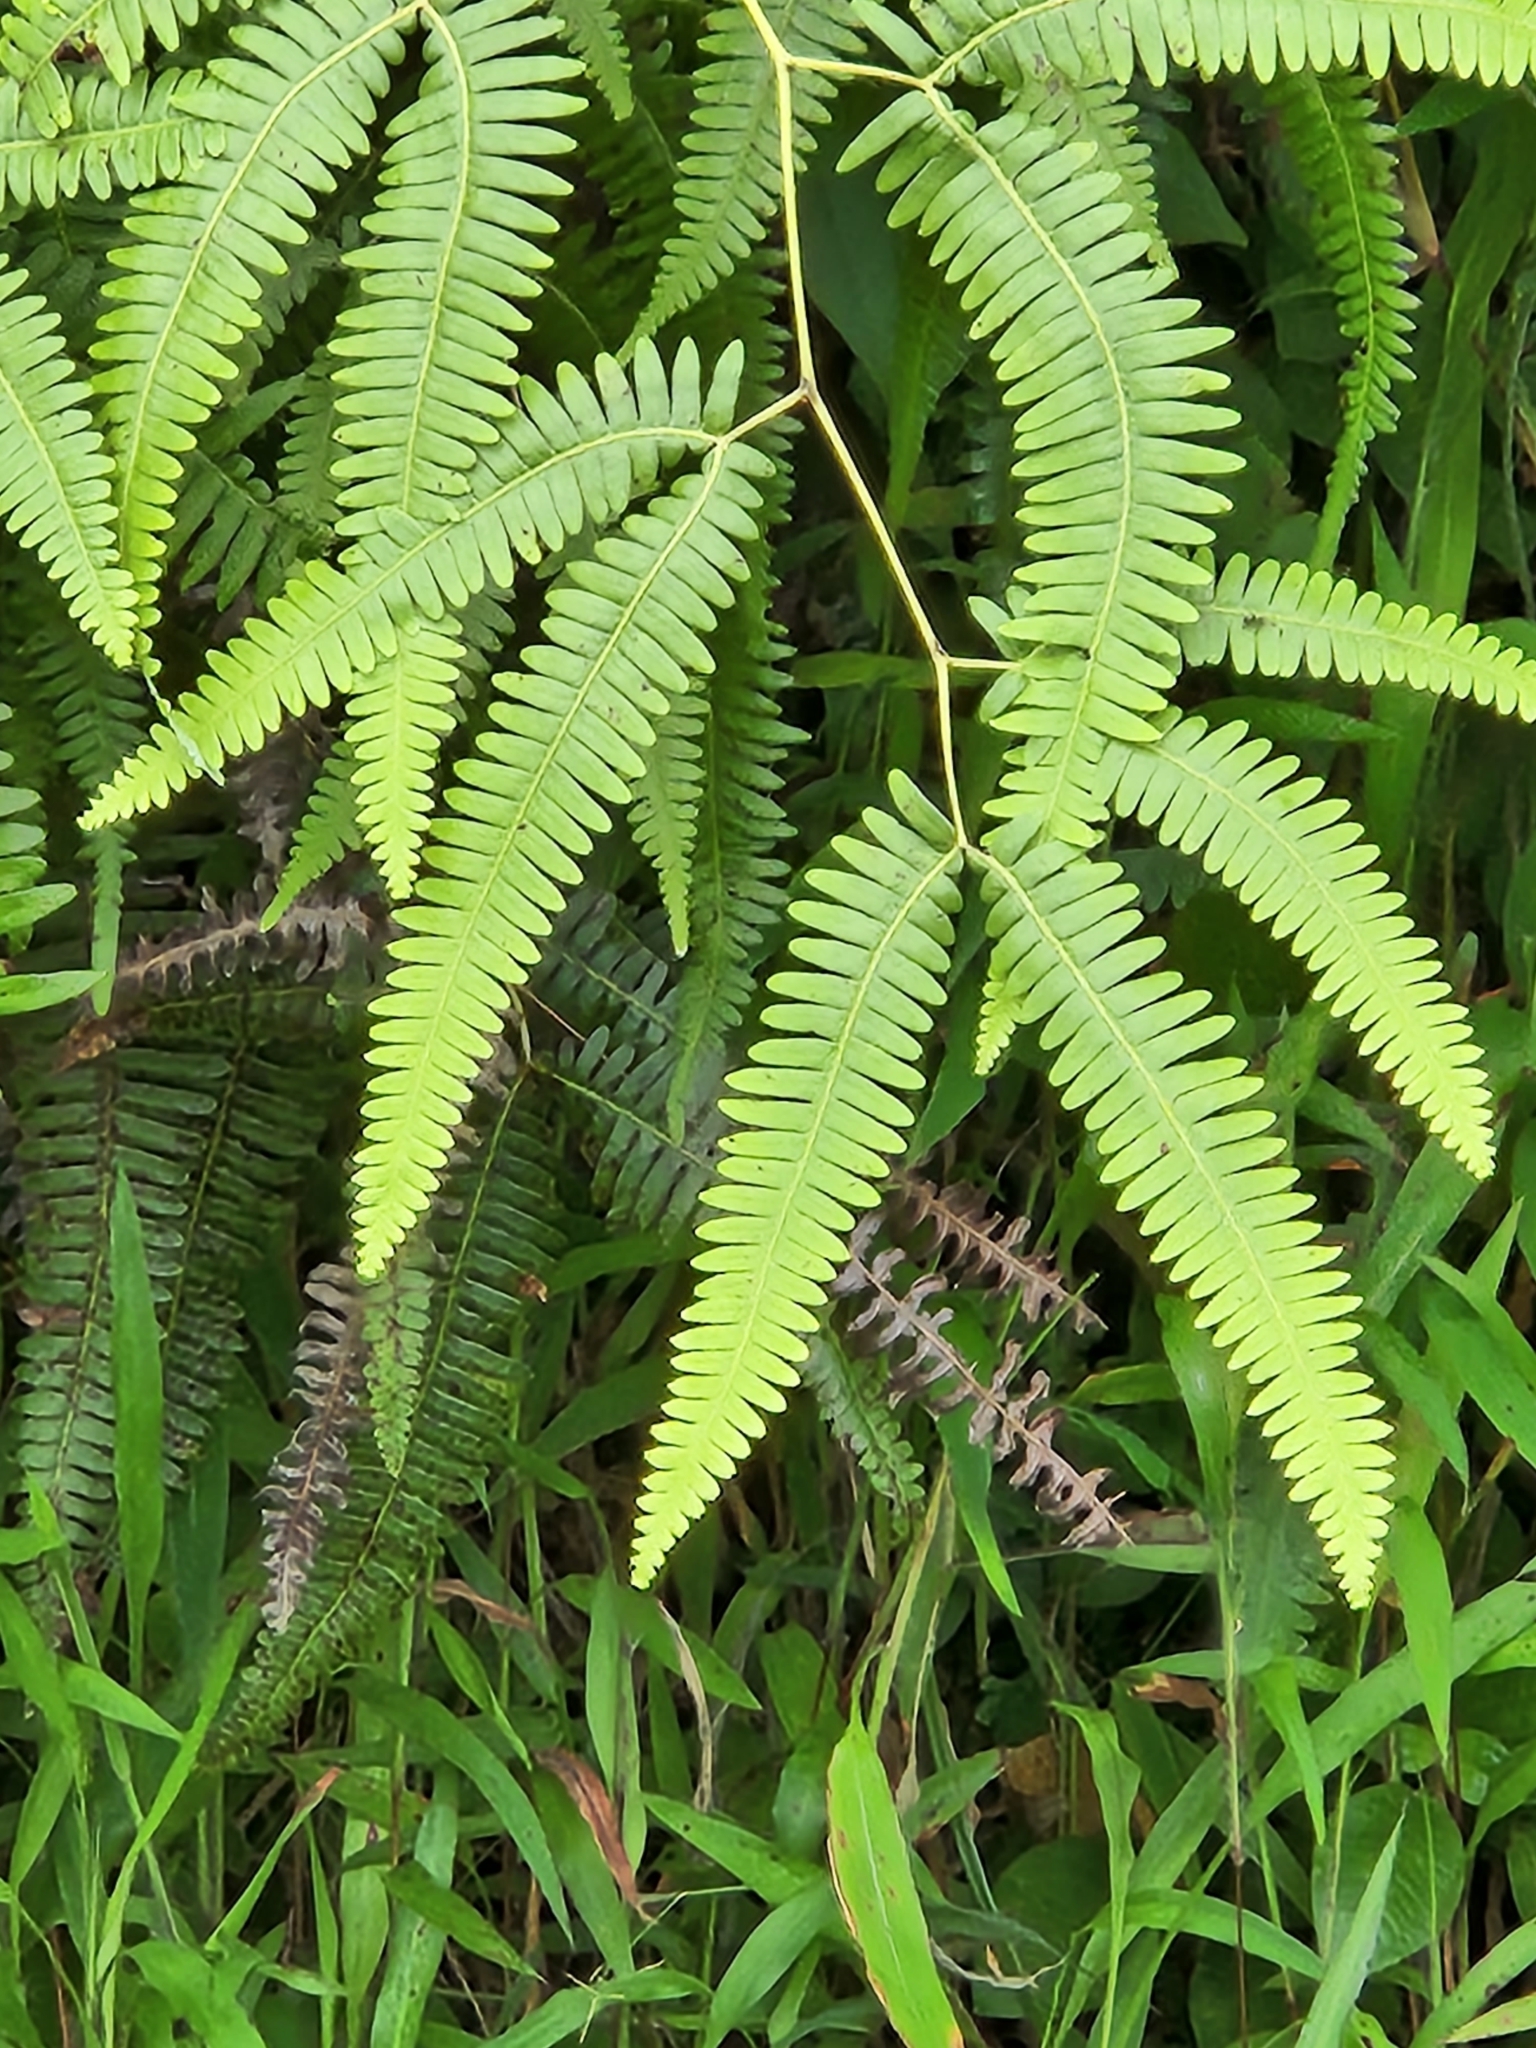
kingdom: Plantae
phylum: Tracheophyta
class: Polypodiopsida
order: Gleicheniales
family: Gleicheniaceae
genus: Gleichenella
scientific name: Gleichenella pectinata
